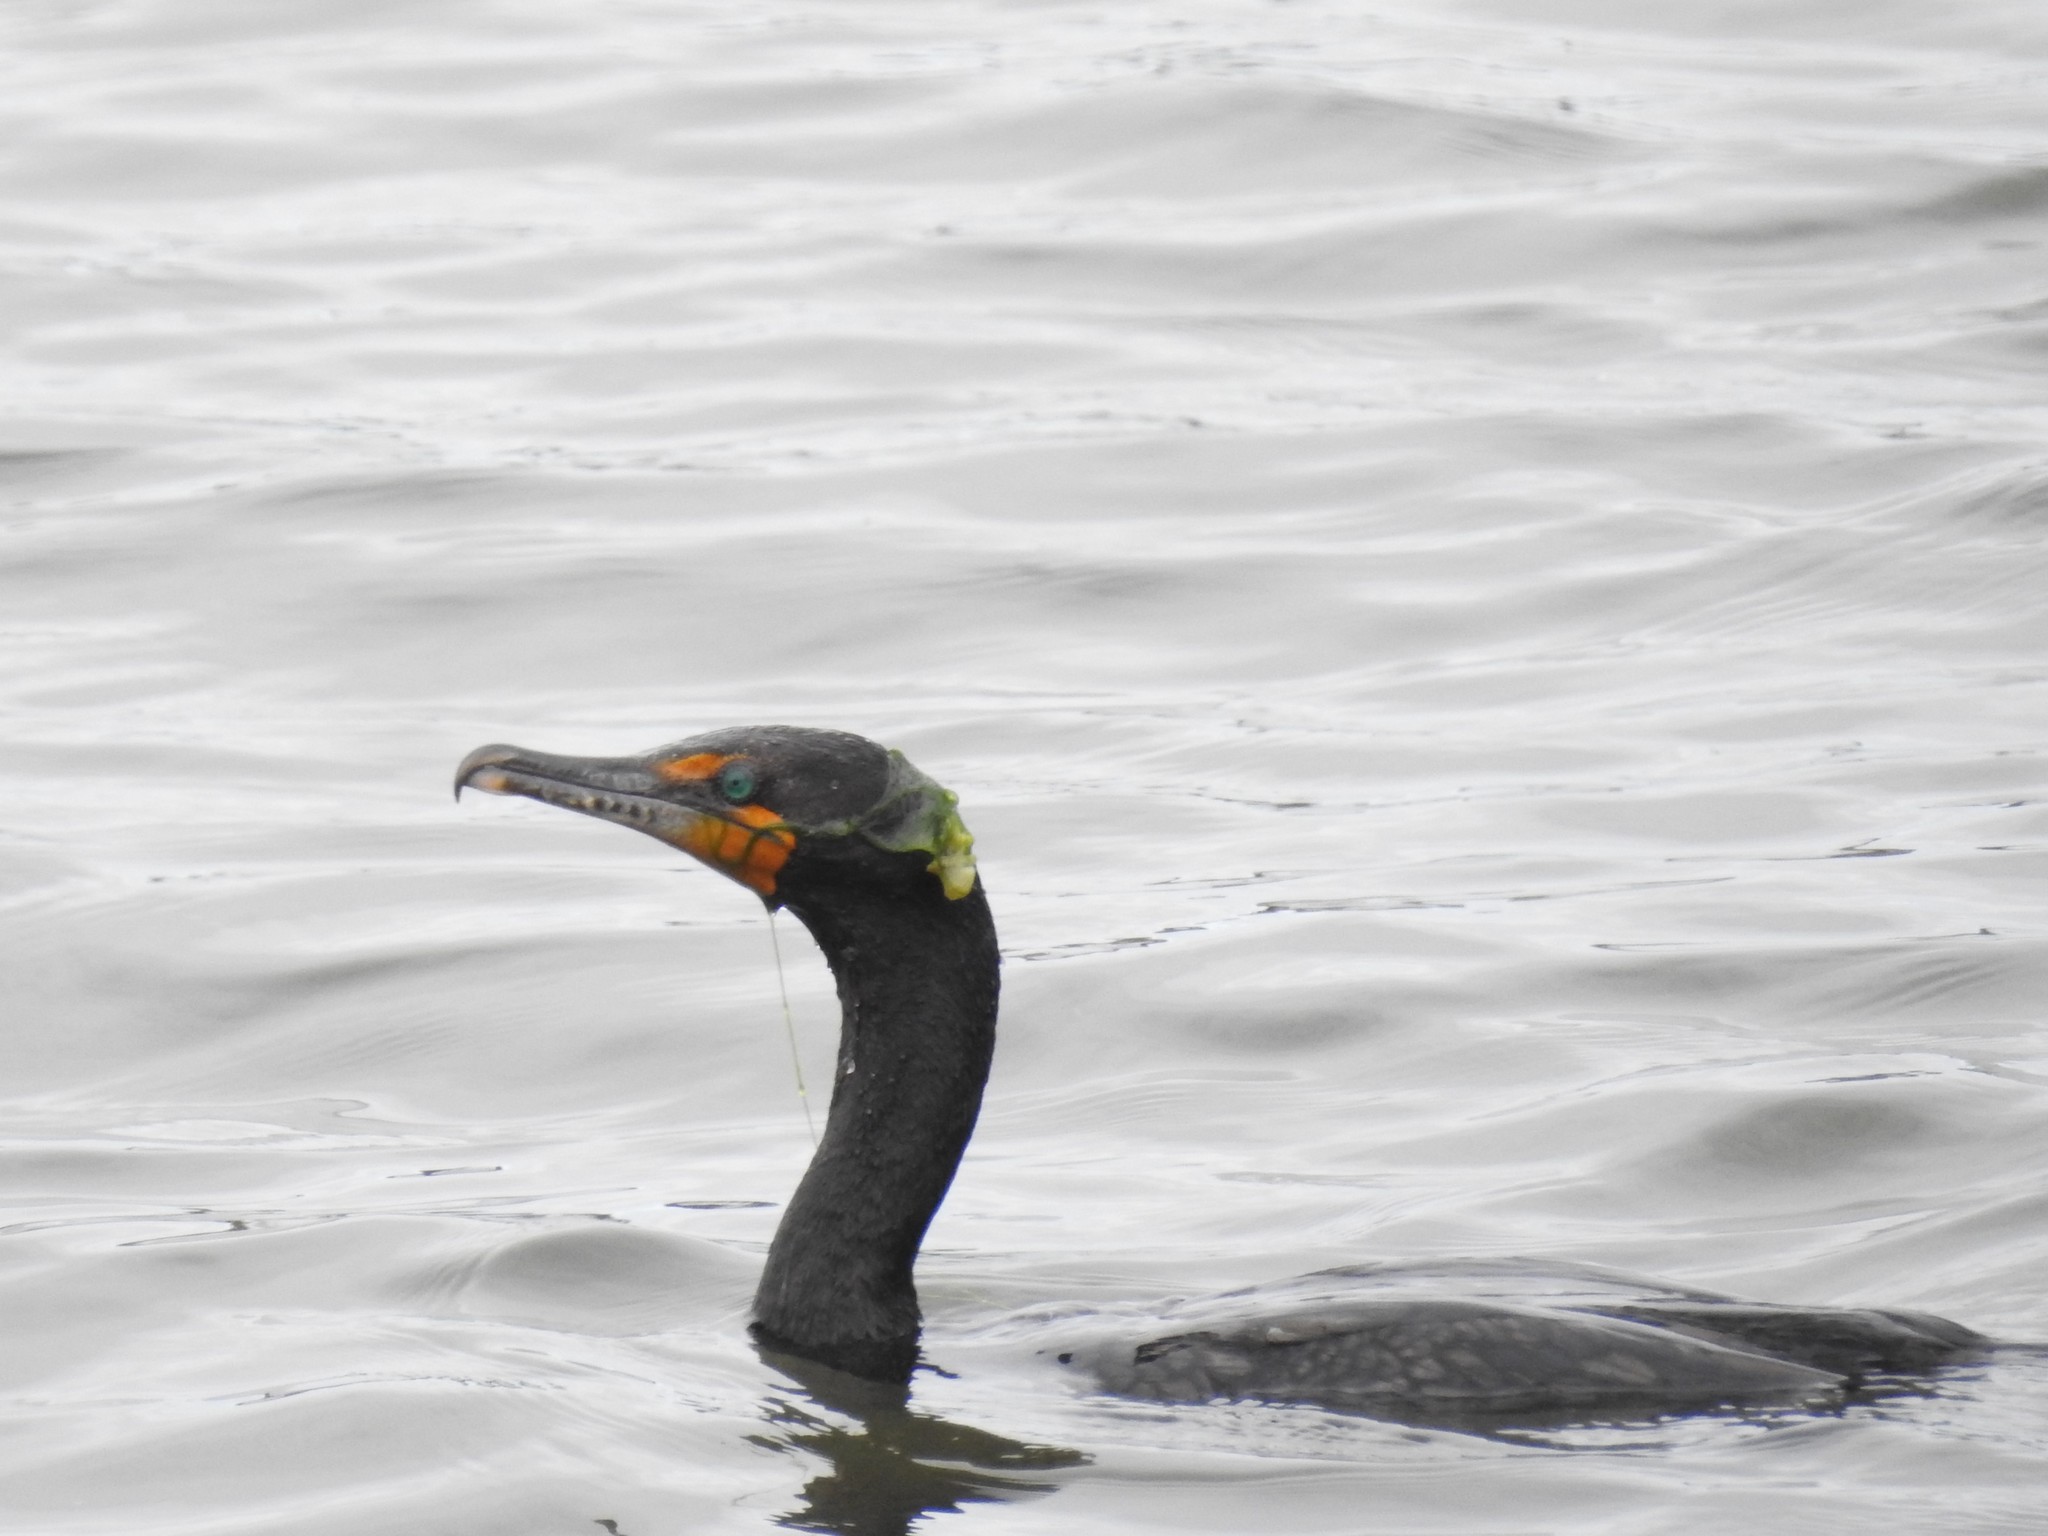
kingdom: Animalia
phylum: Chordata
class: Aves
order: Suliformes
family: Phalacrocoracidae
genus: Phalacrocorax
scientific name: Phalacrocorax auritus
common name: Double-crested cormorant
